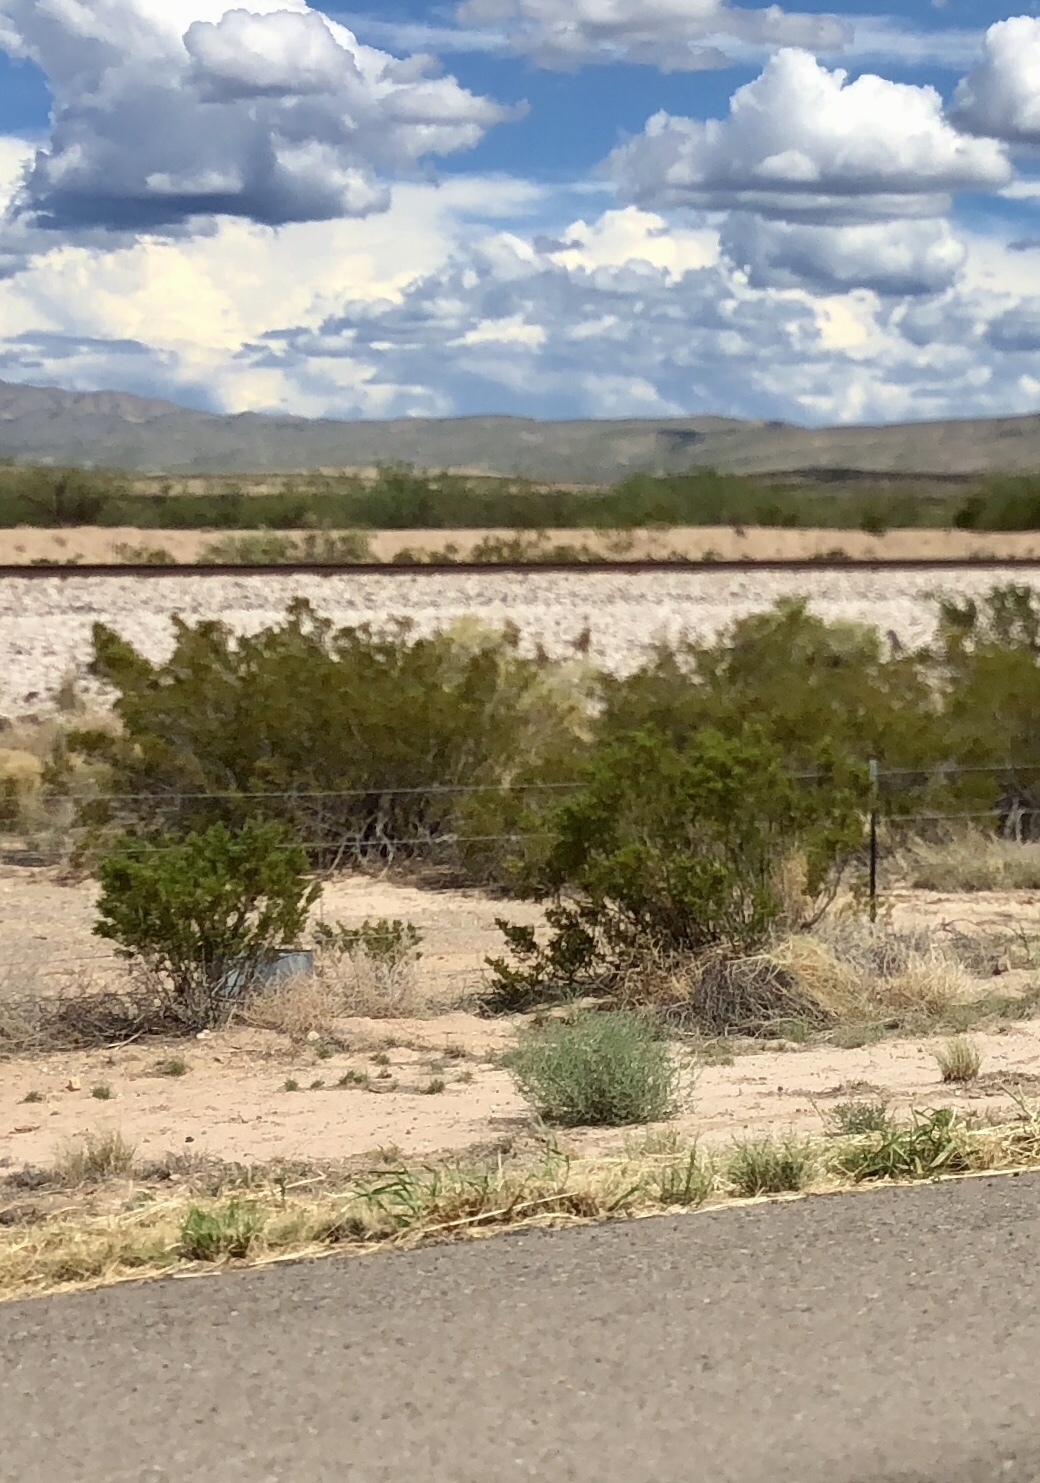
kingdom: Plantae
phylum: Tracheophyta
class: Magnoliopsida
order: Zygophyllales
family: Zygophyllaceae
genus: Larrea
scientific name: Larrea tridentata
